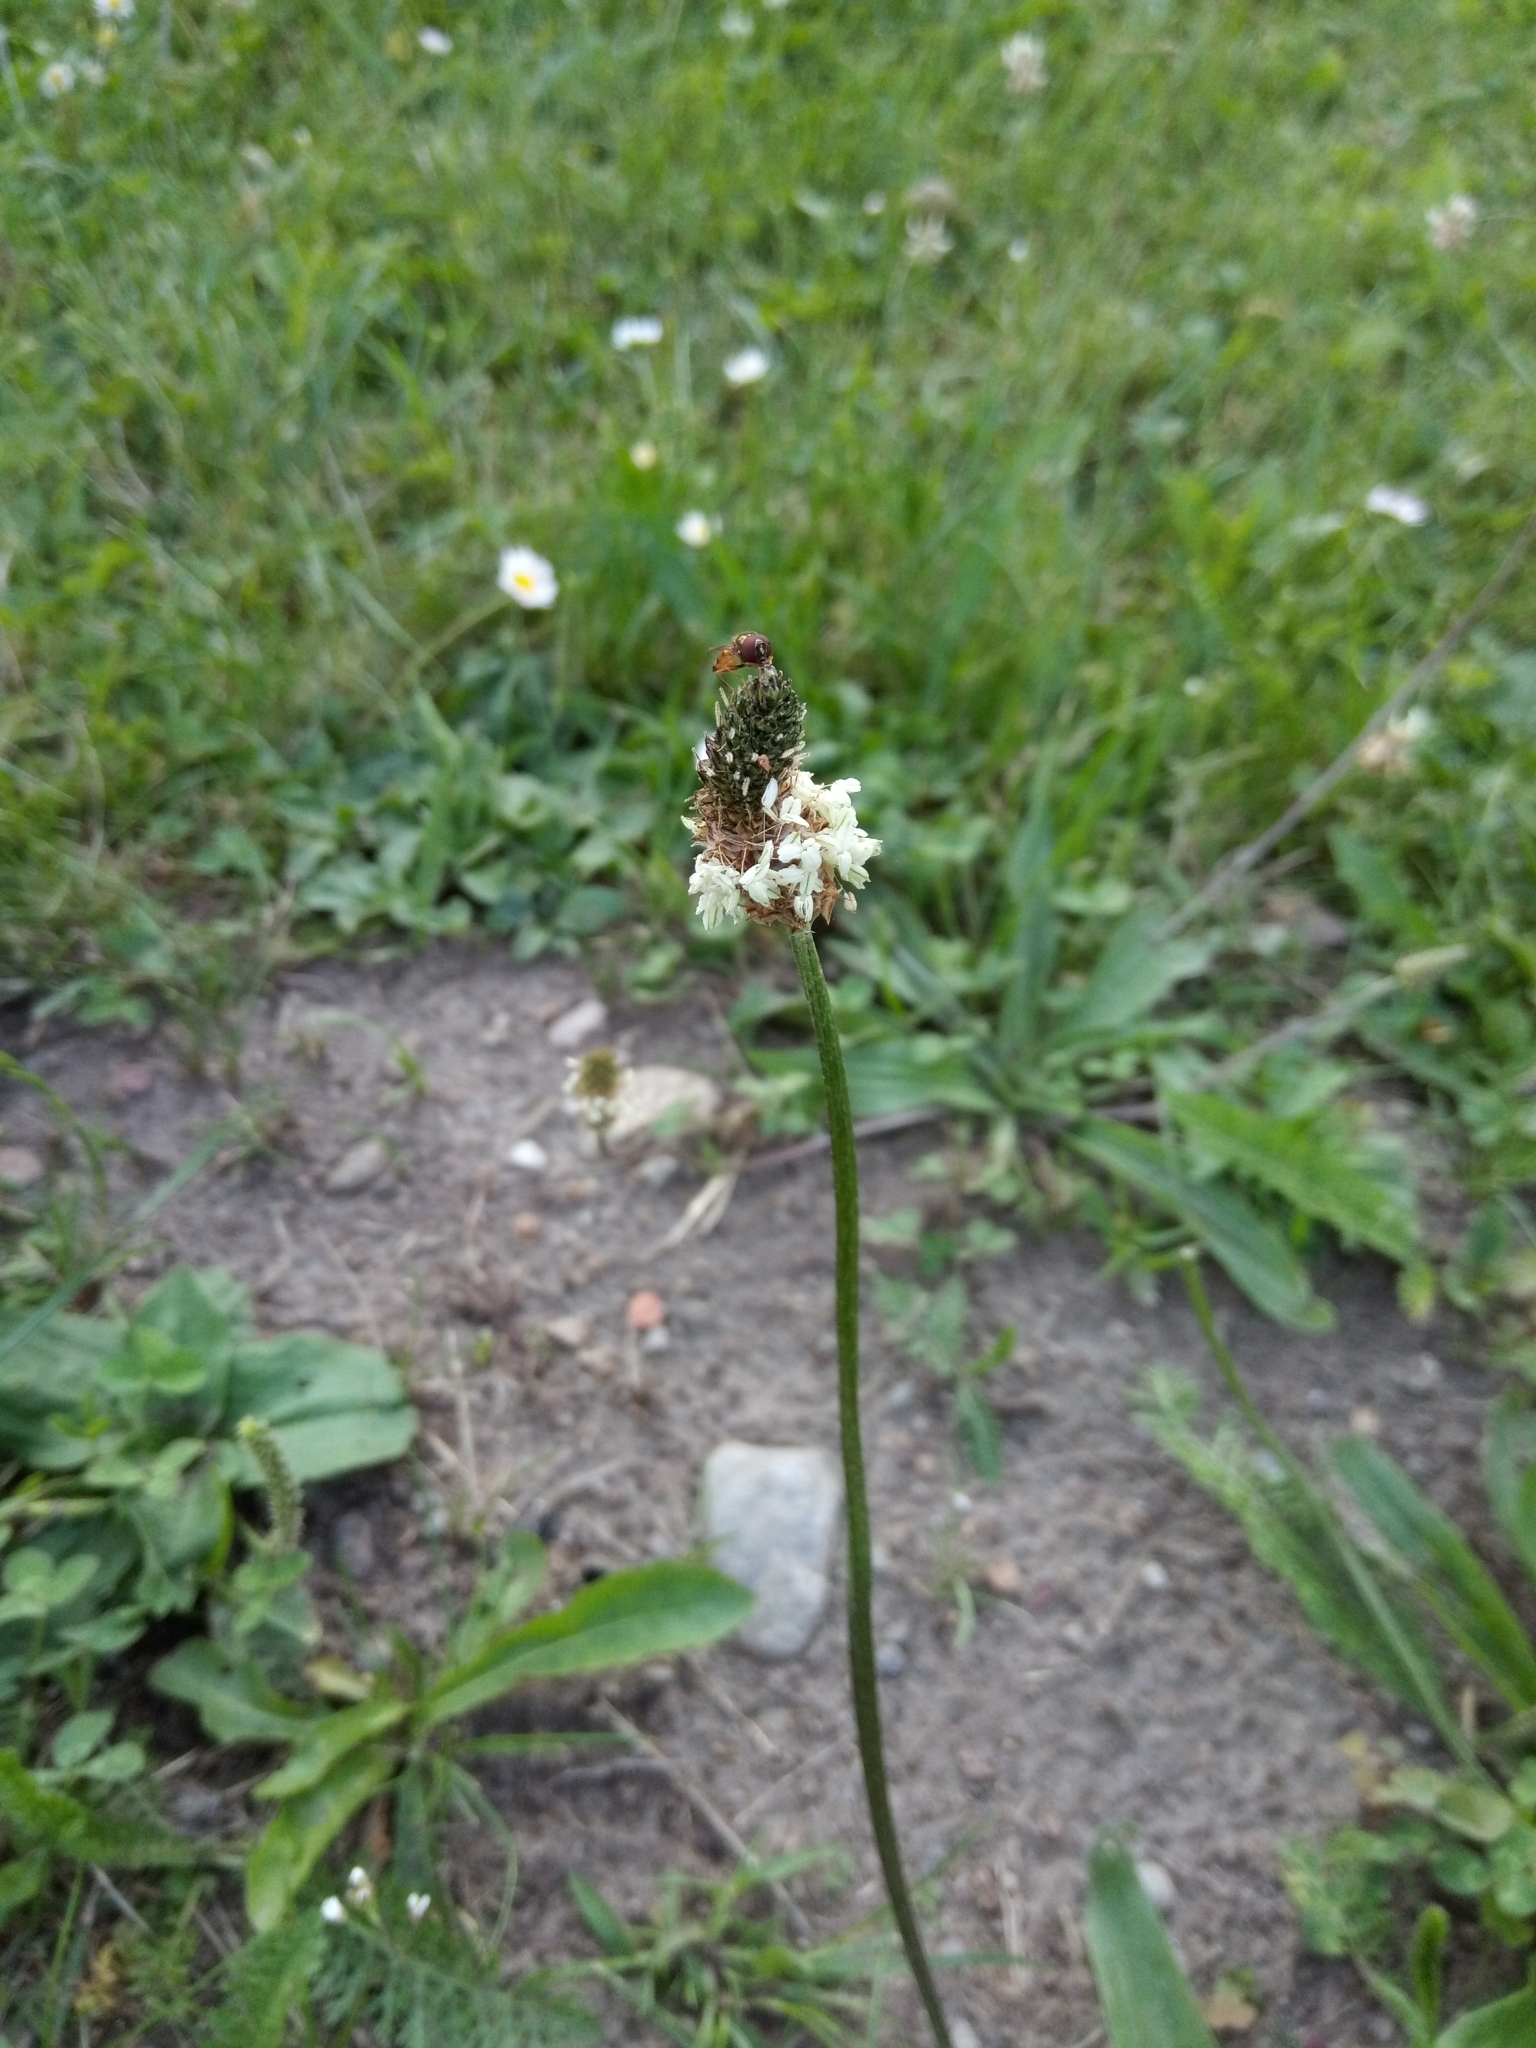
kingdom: Plantae
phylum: Tracheophyta
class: Magnoliopsida
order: Lamiales
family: Plantaginaceae
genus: Plantago
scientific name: Plantago lanceolata
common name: Ribwort plantain
